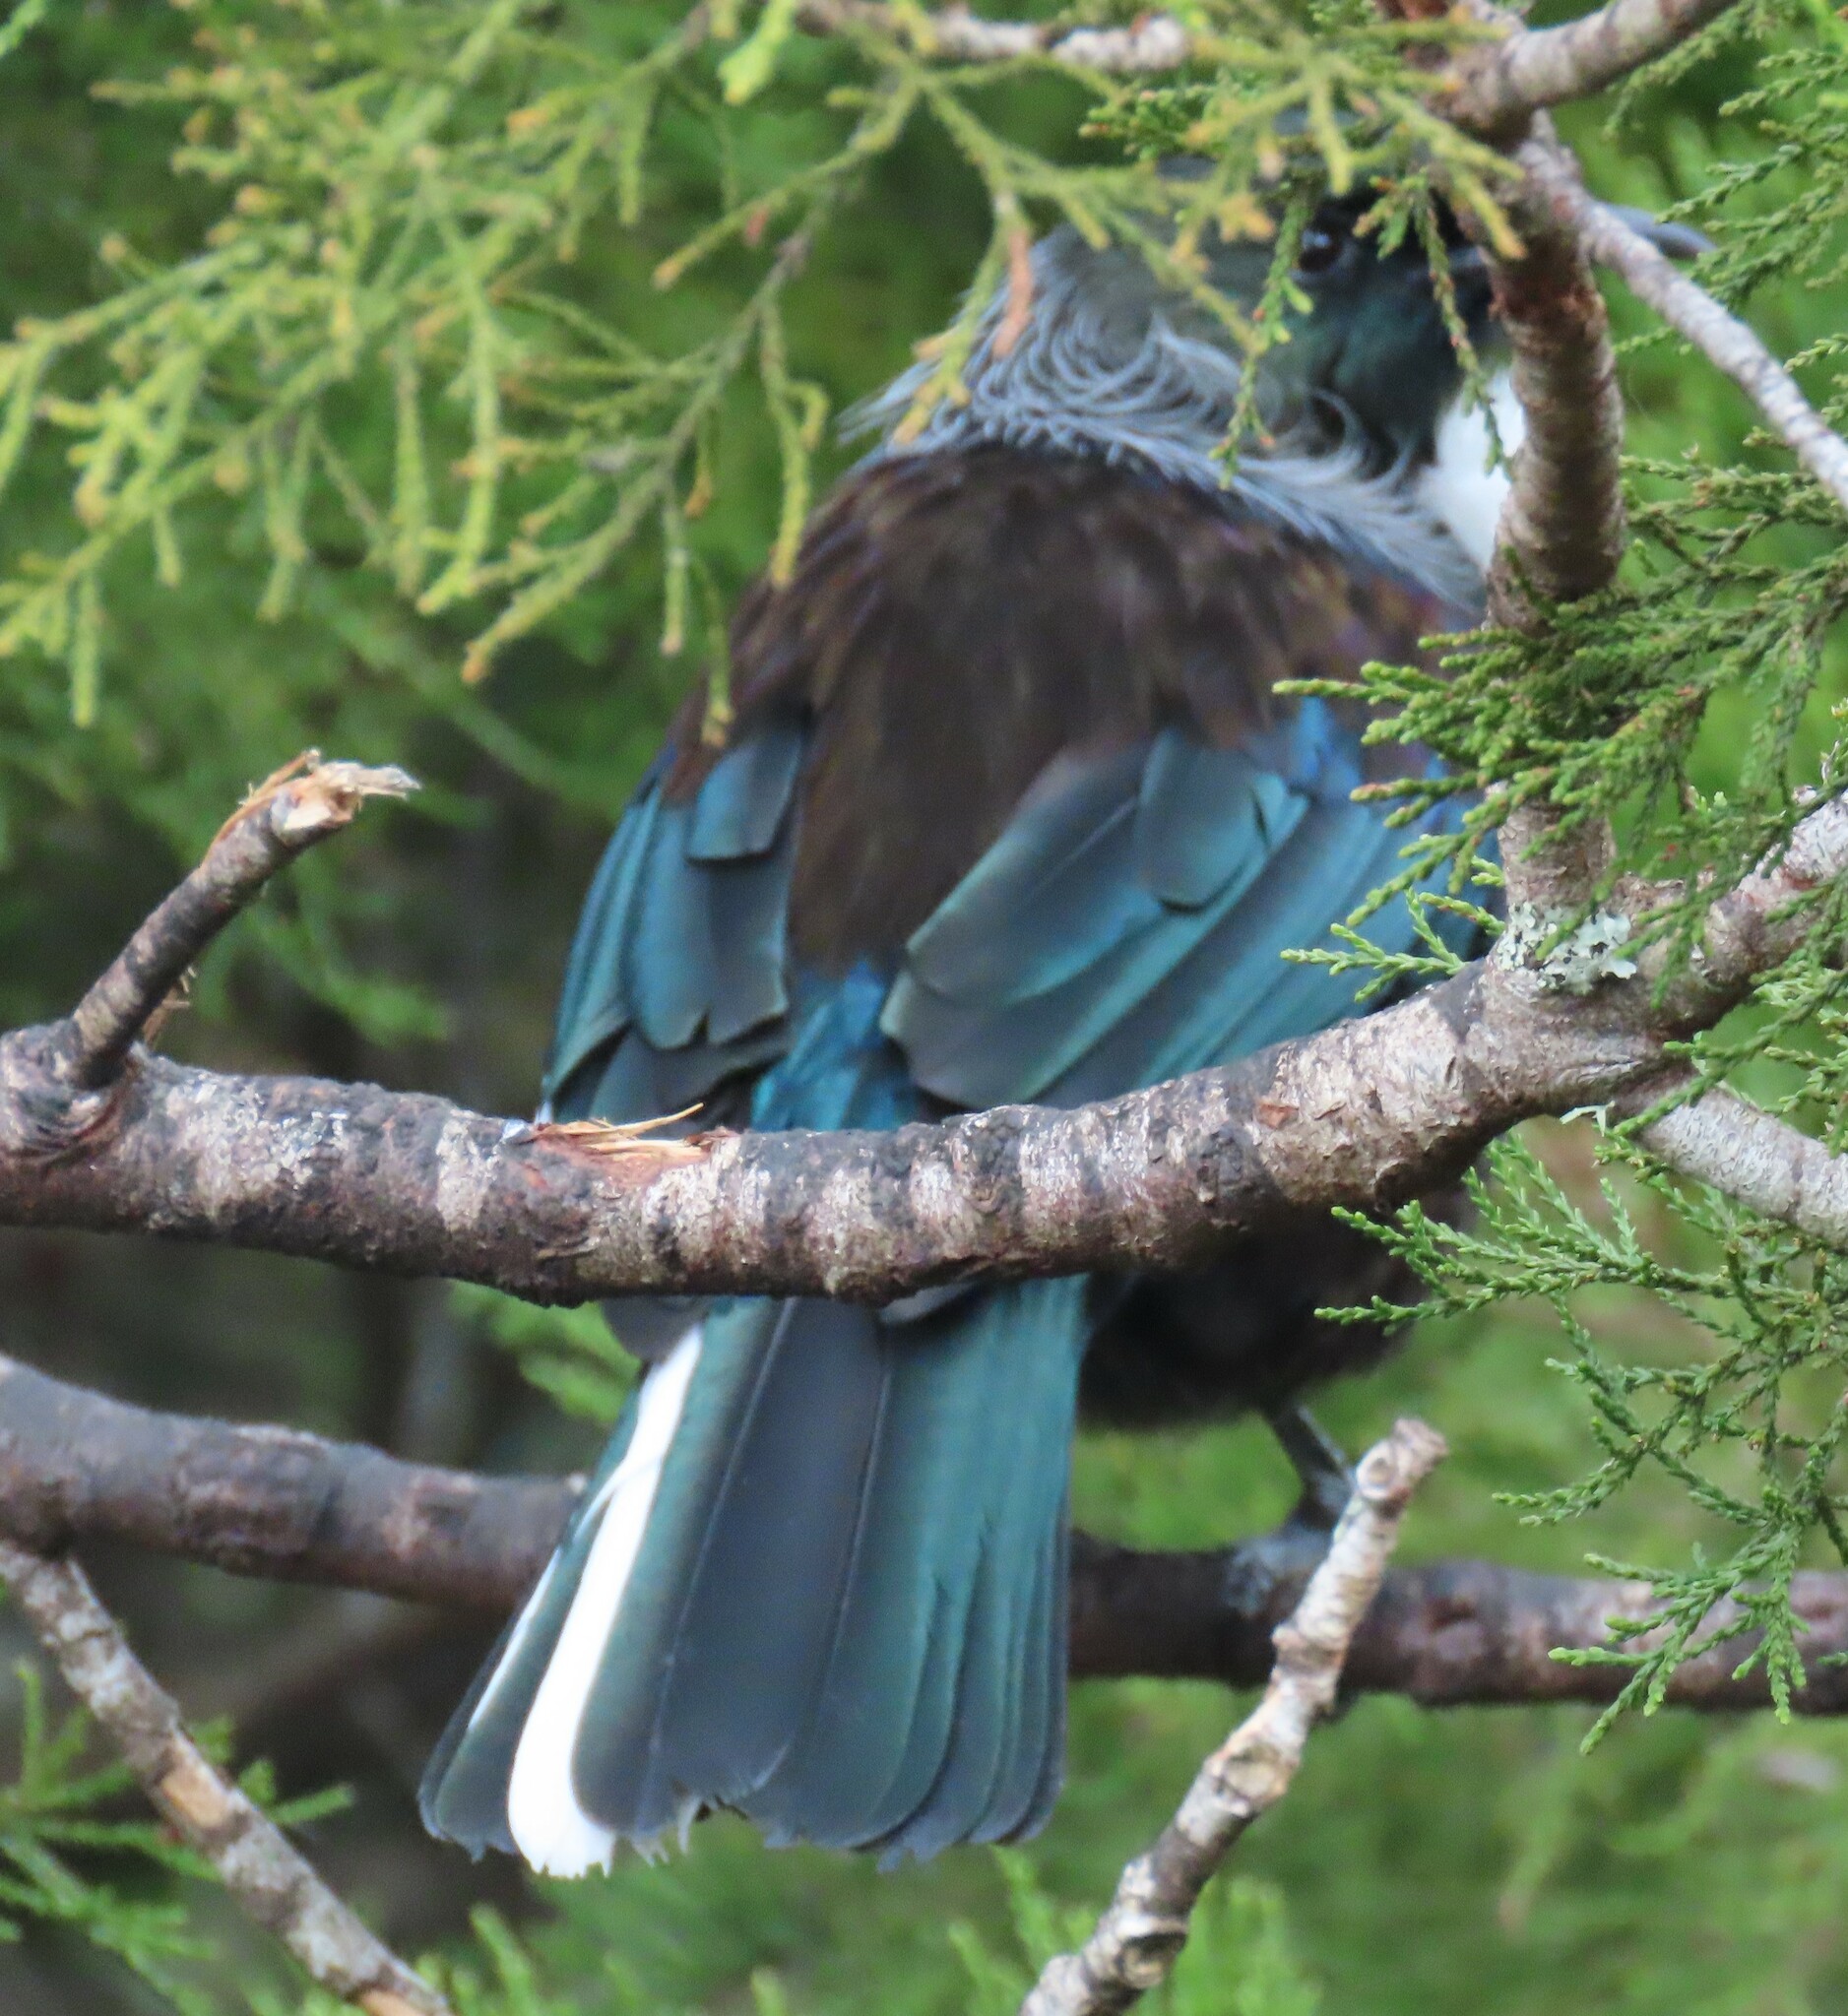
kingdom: Animalia
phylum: Chordata
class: Aves
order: Passeriformes
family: Meliphagidae
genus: Prosthemadera
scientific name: Prosthemadera novaeseelandiae
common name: Tui
